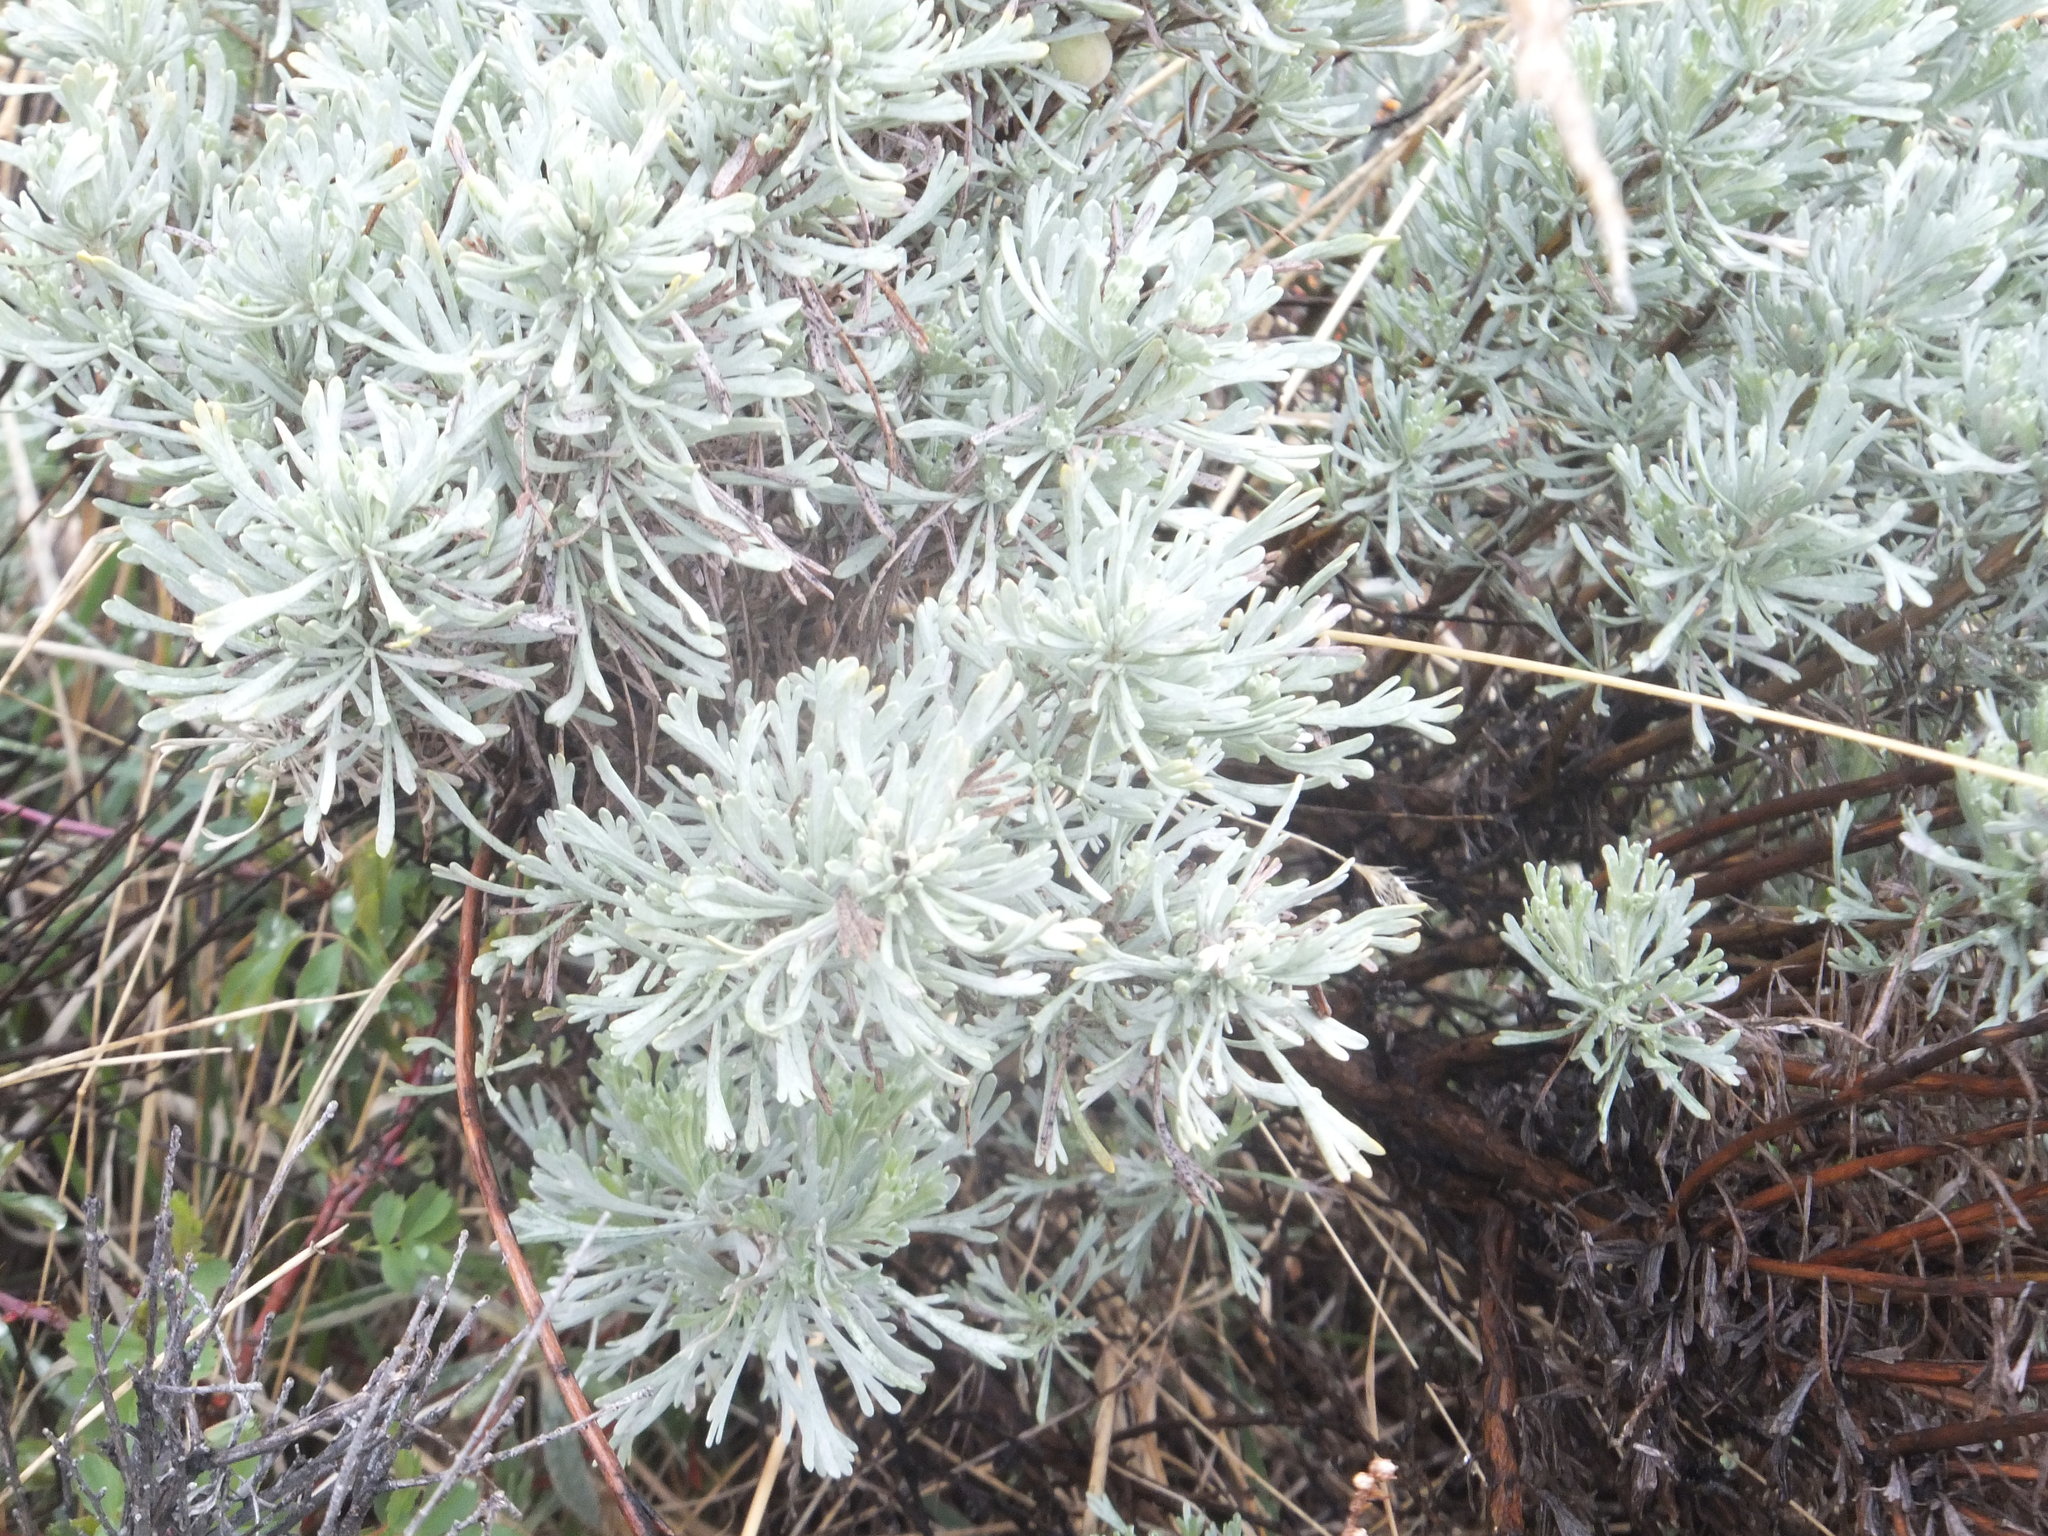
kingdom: Plantae
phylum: Tracheophyta
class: Magnoliopsida
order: Asterales
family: Asteraceae
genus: Artemisia
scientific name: Artemisia tripartita
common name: Three-tip sagebrush
